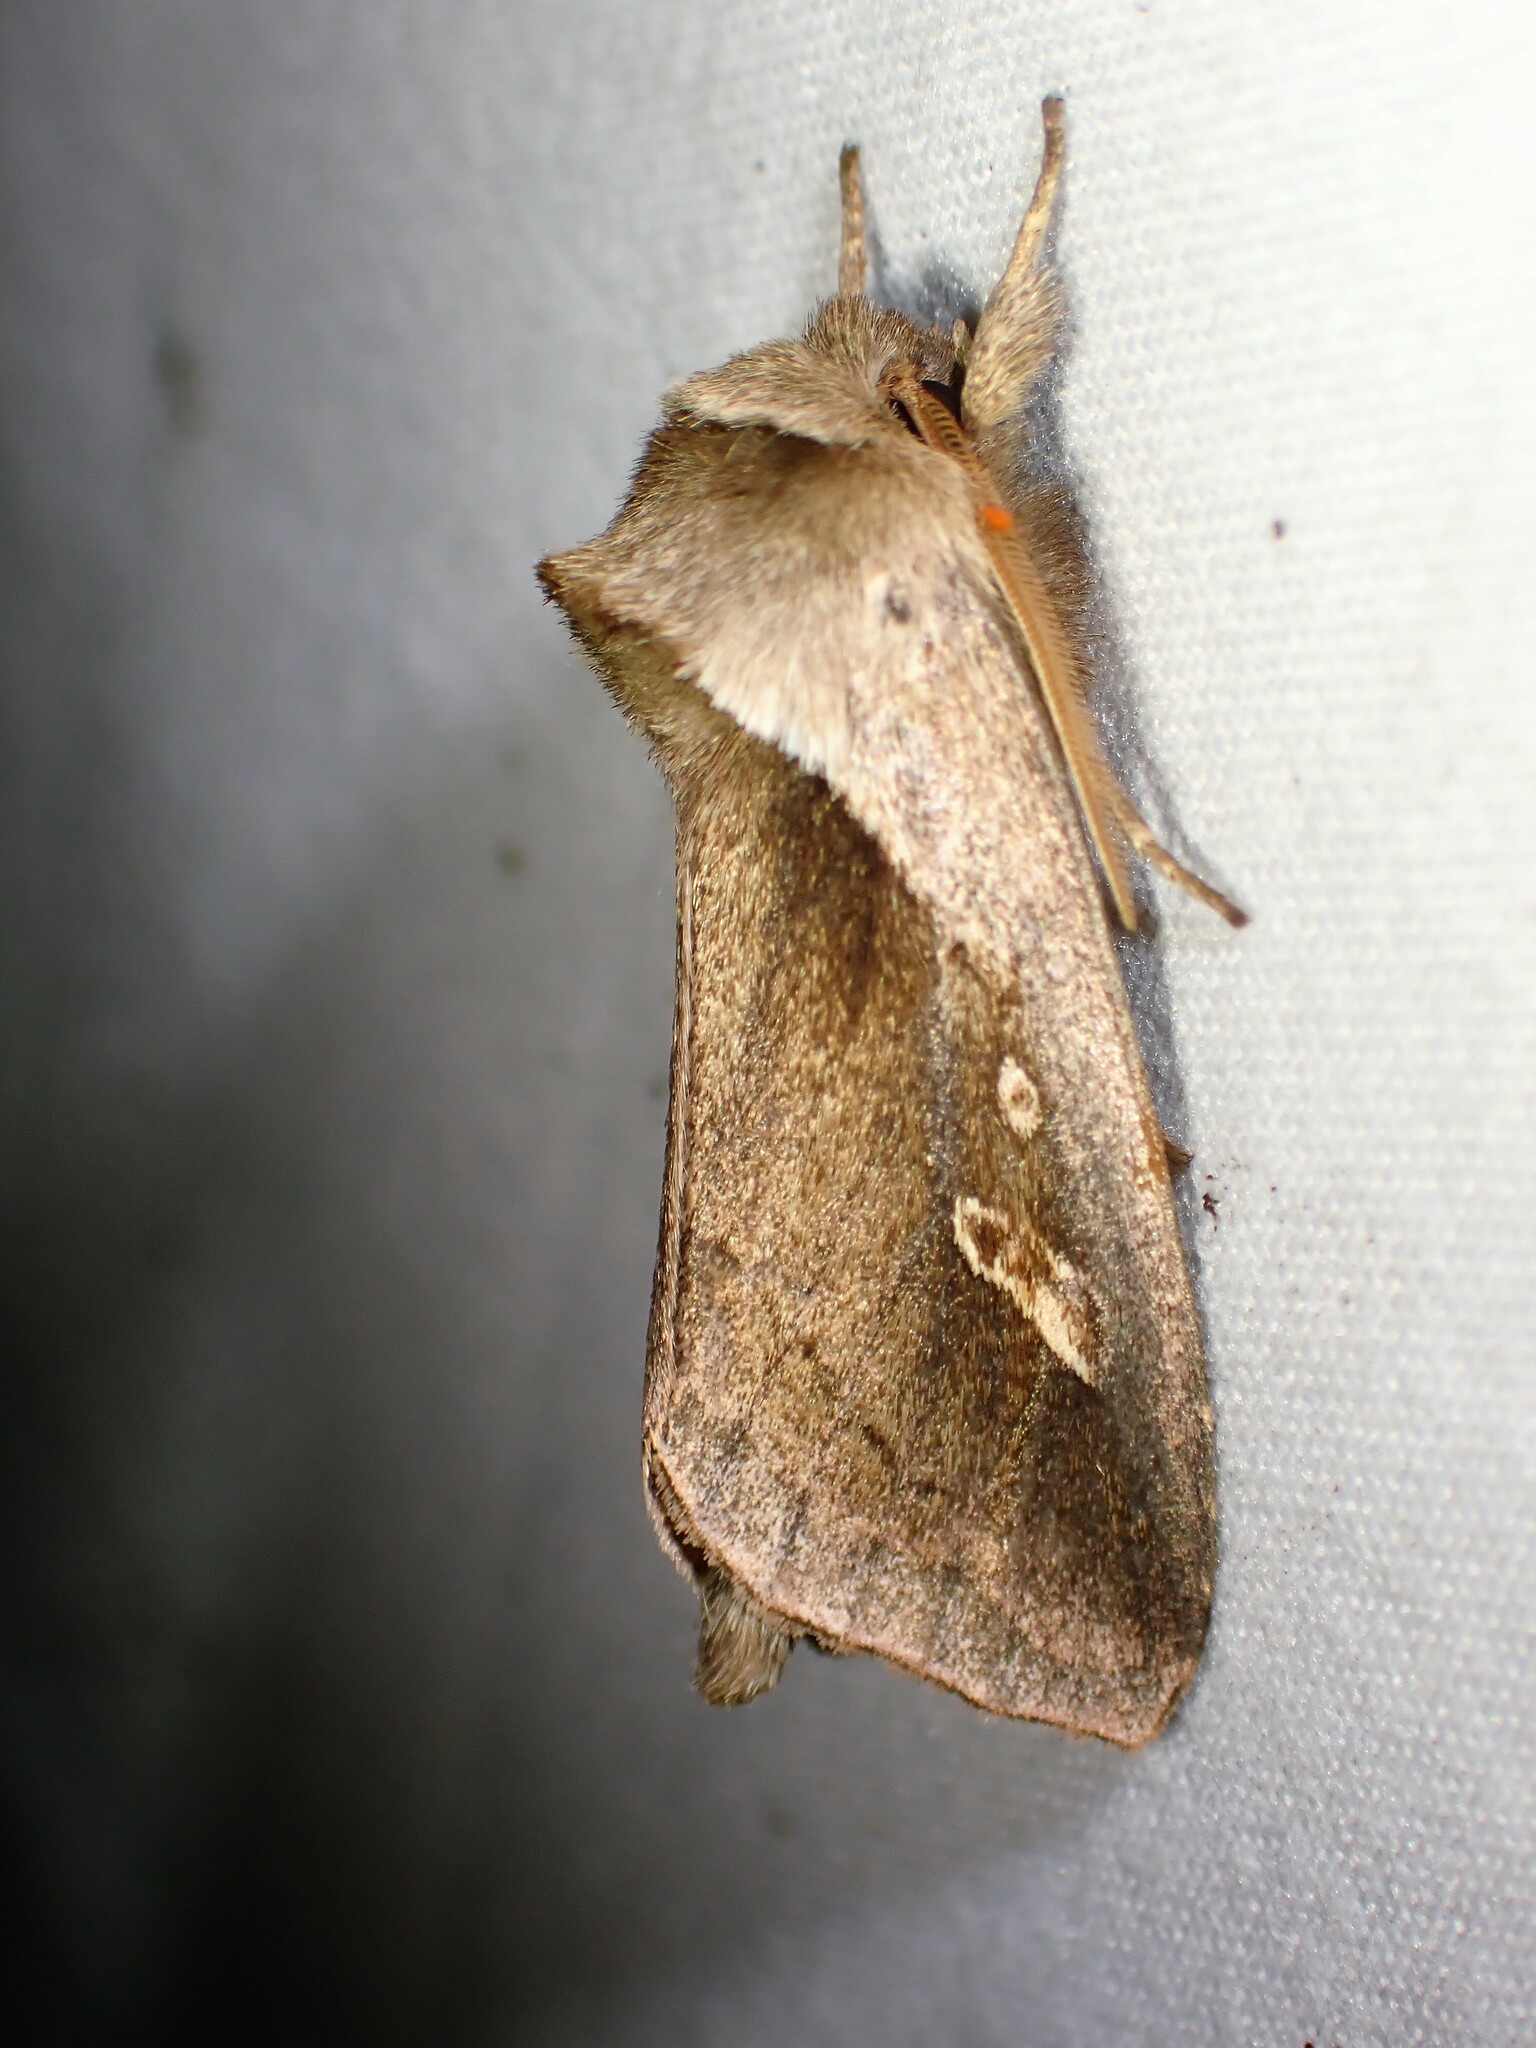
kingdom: Animalia
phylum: Arthropoda
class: Insecta
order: Lepidoptera
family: Noctuidae
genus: Bellura
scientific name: Bellura obliqua
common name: Cattail borer moth
